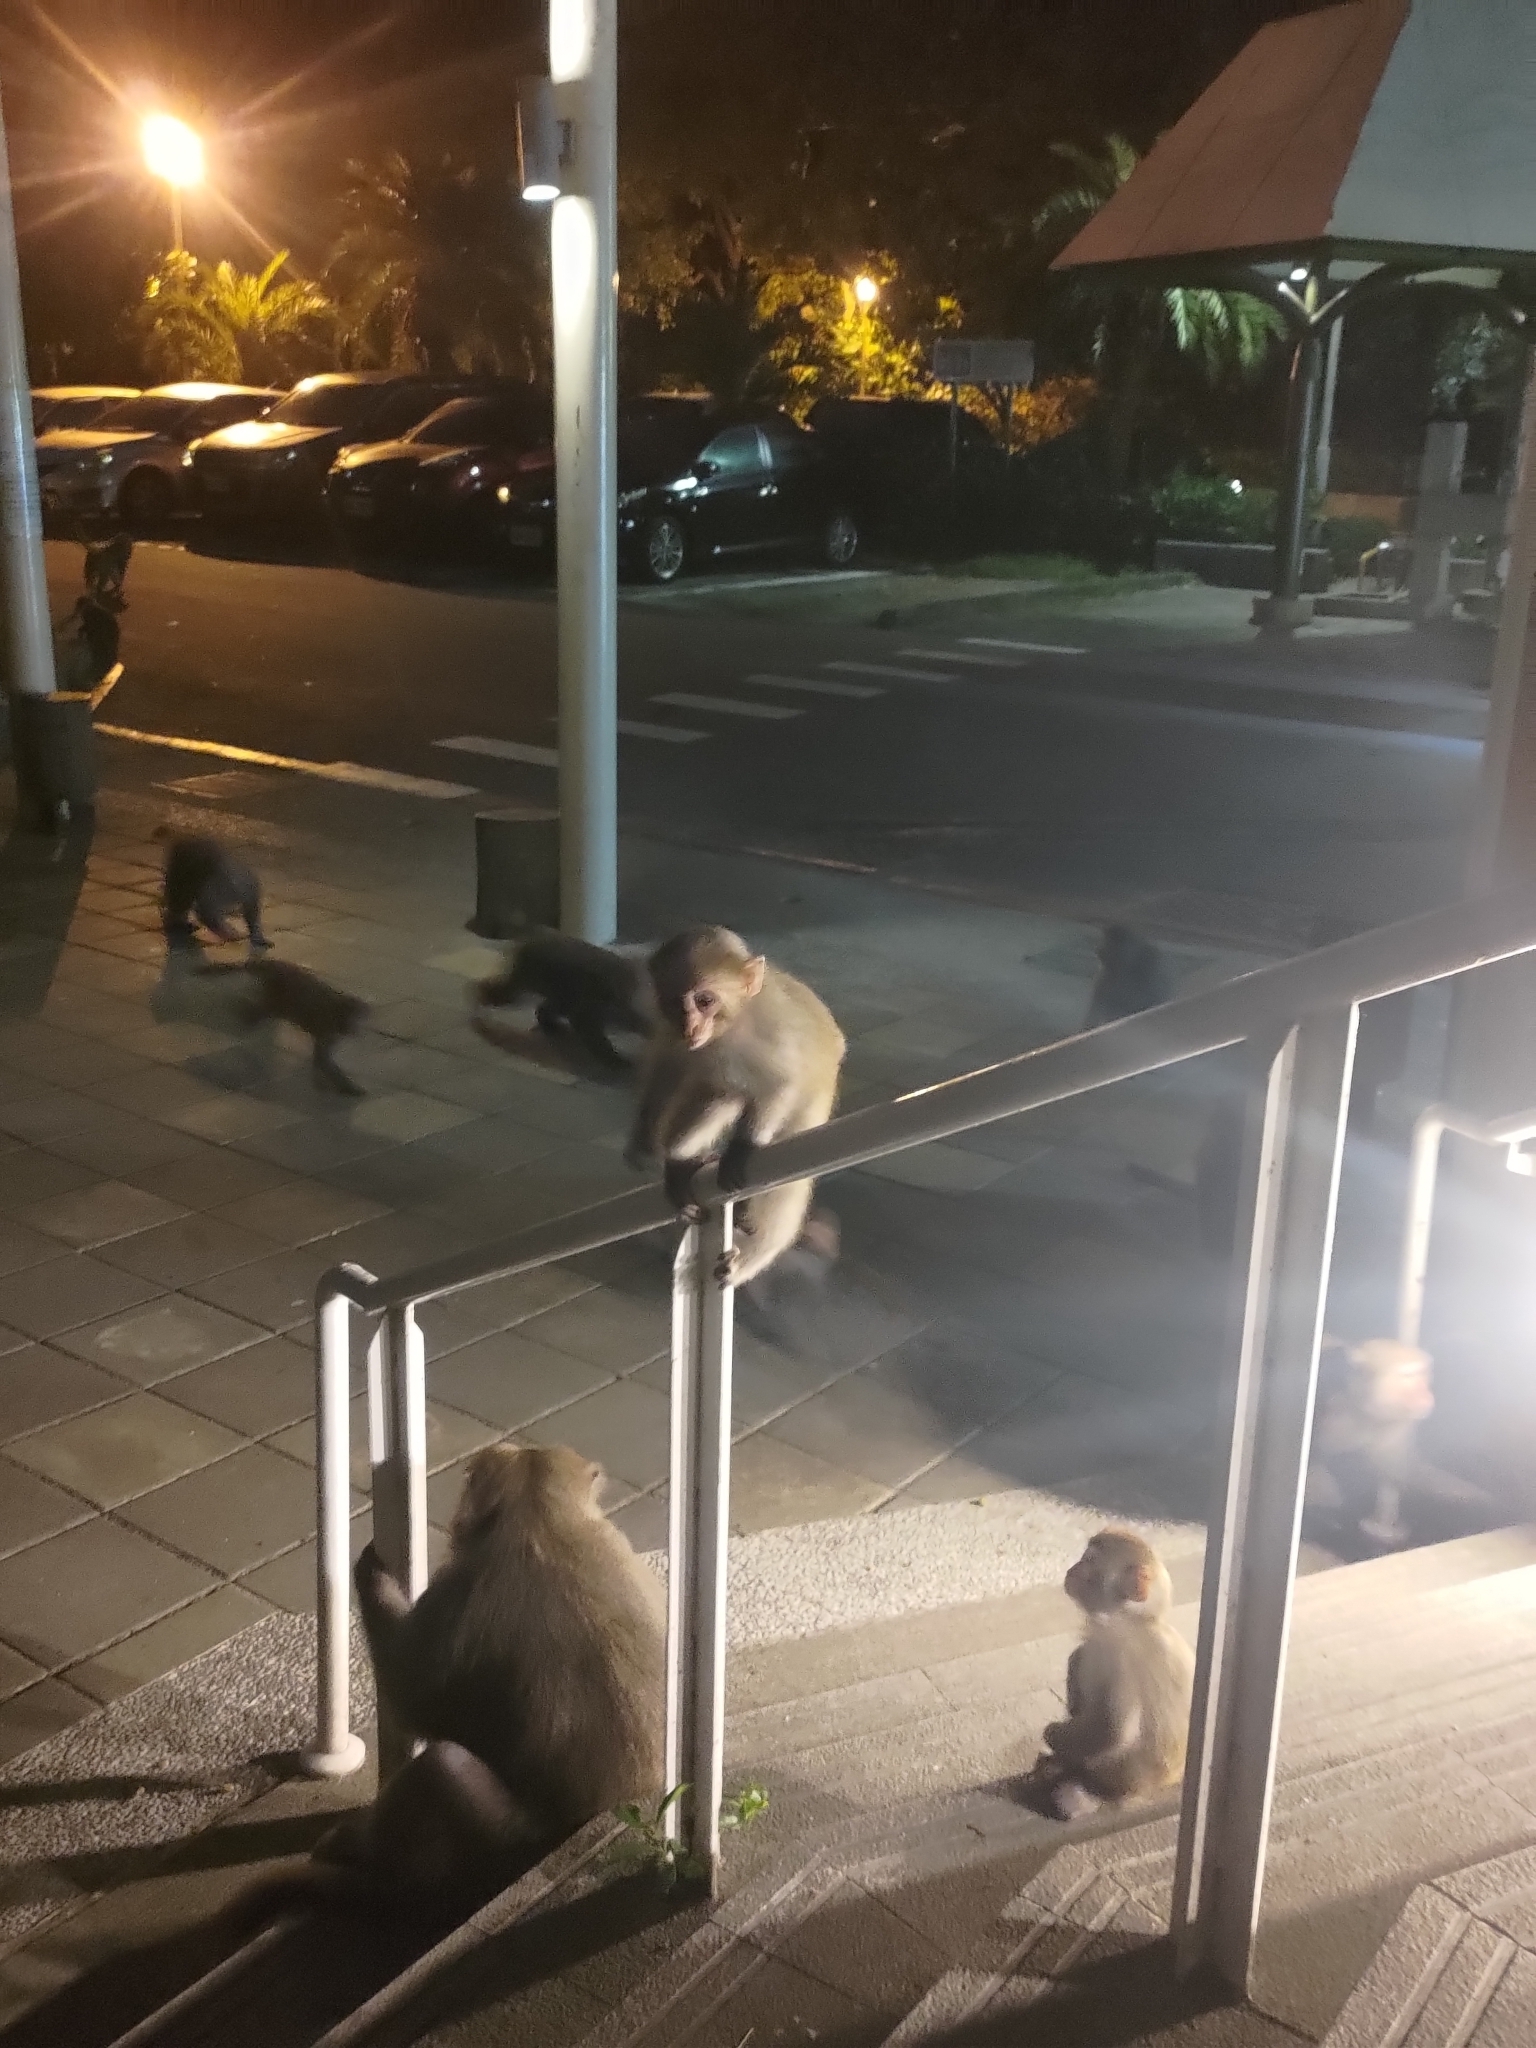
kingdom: Animalia
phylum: Chordata
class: Mammalia
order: Primates
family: Cercopithecidae
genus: Macaca
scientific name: Macaca cyclopis
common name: Formosan rock macaque
